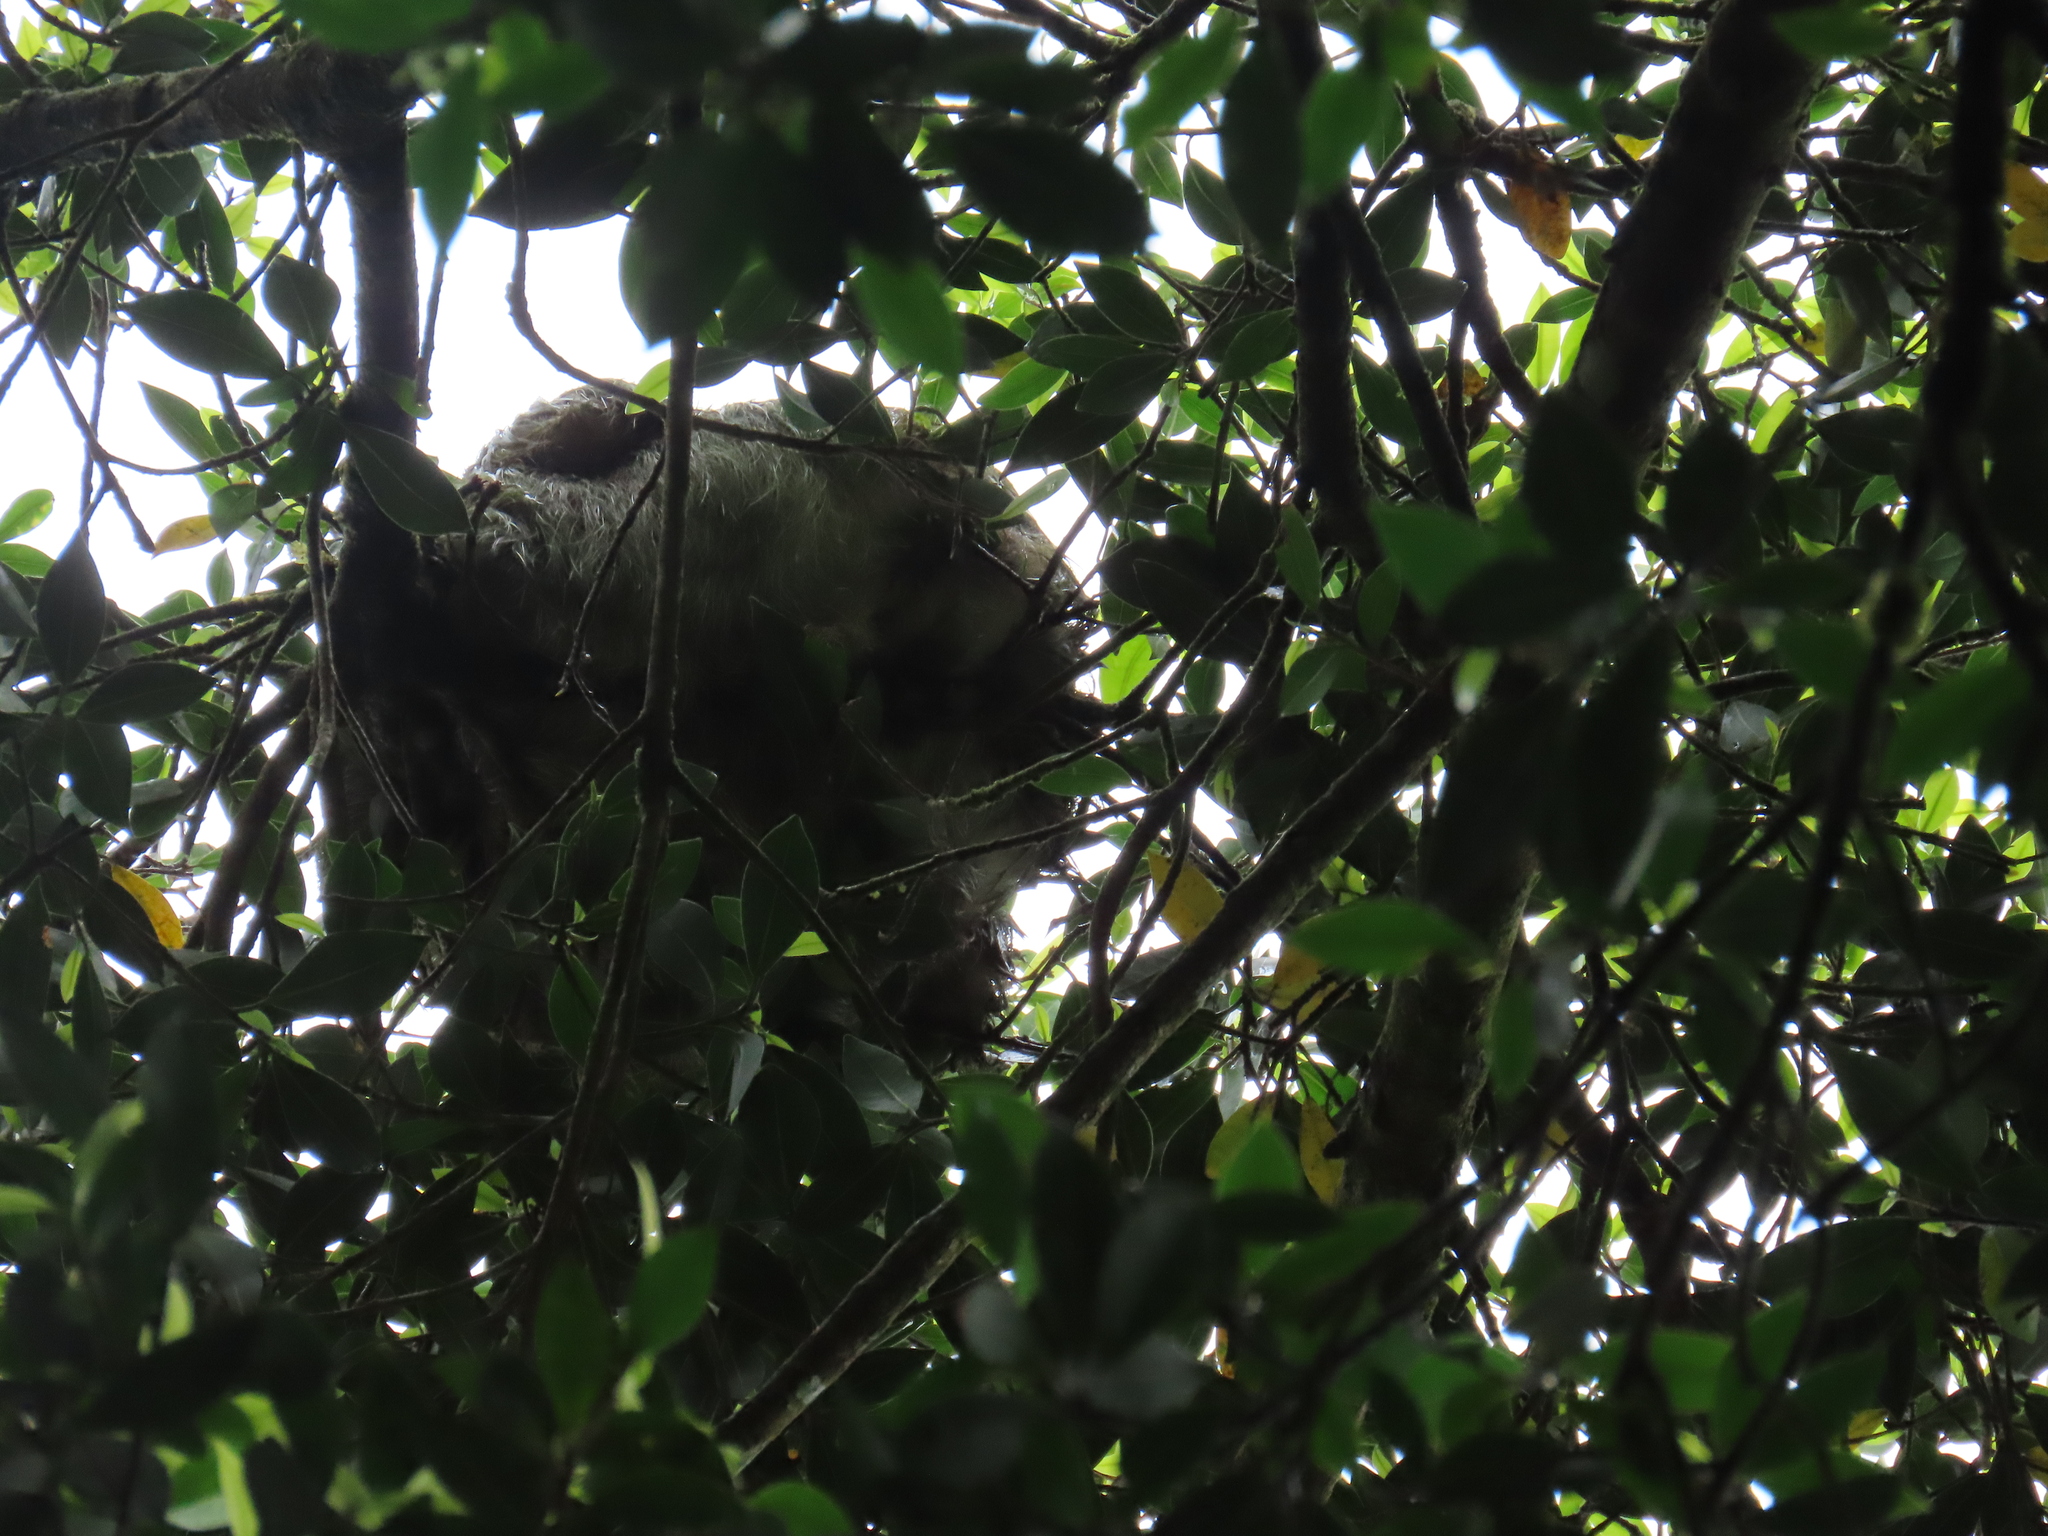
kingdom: Animalia
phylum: Chordata
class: Mammalia
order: Pilosa
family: Bradypodidae
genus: Bradypus
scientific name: Bradypus variegatus
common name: Brown-throated three-toed sloth
